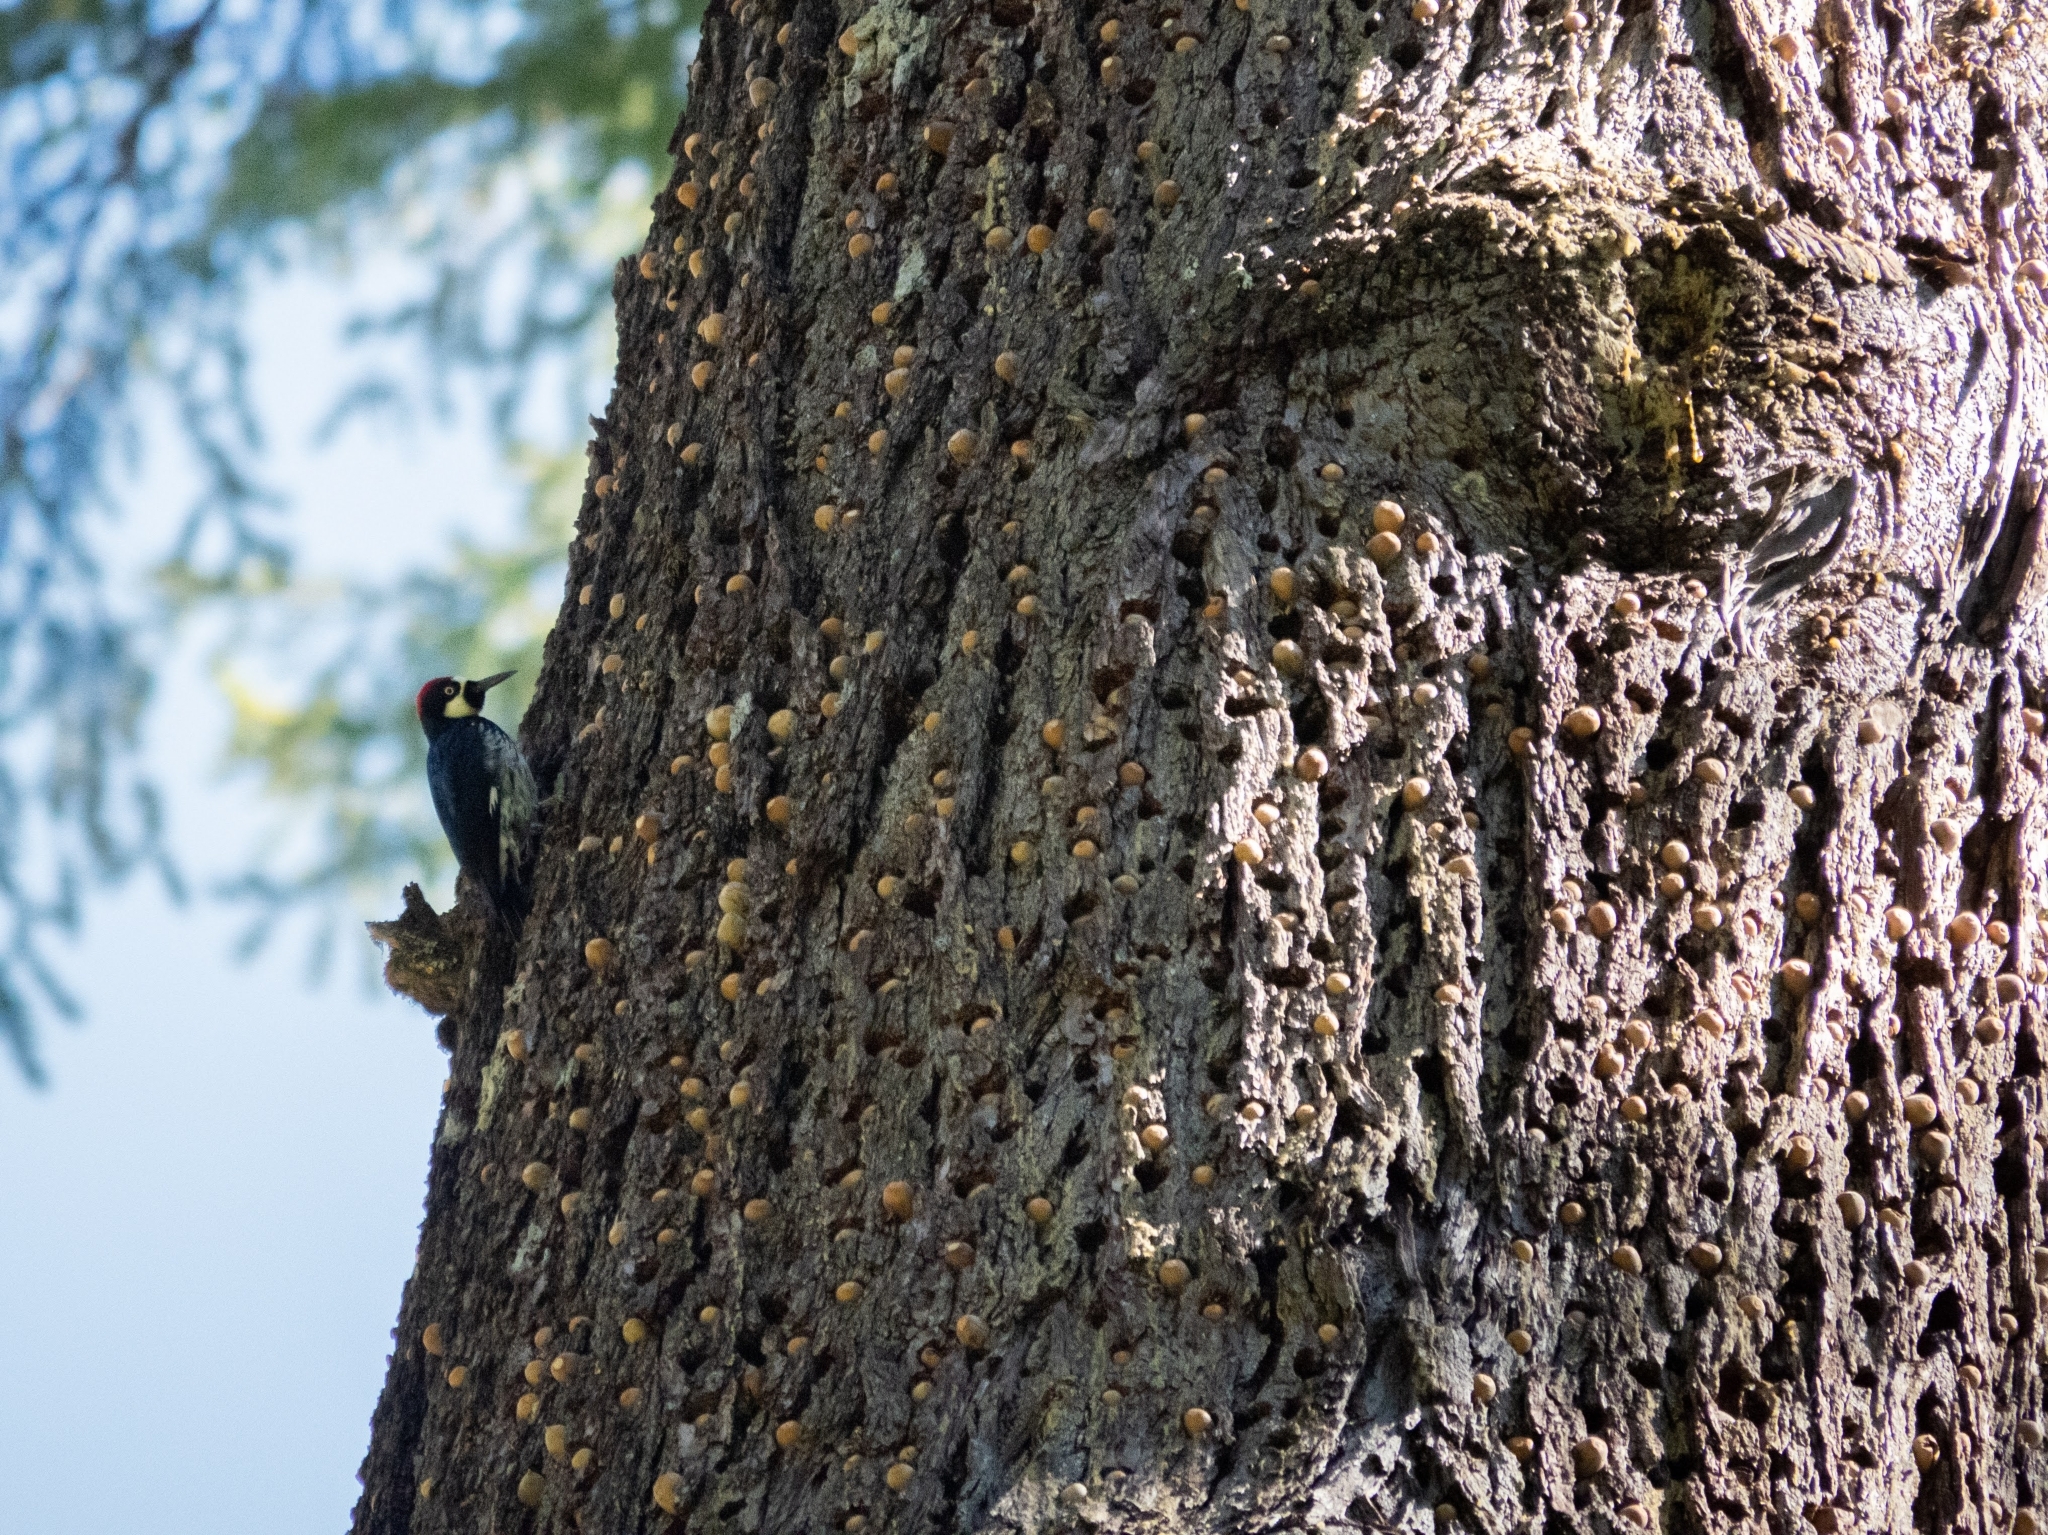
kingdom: Animalia
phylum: Chordata
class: Aves
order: Piciformes
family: Picidae
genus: Melanerpes
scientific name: Melanerpes formicivorus
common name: Acorn woodpecker
